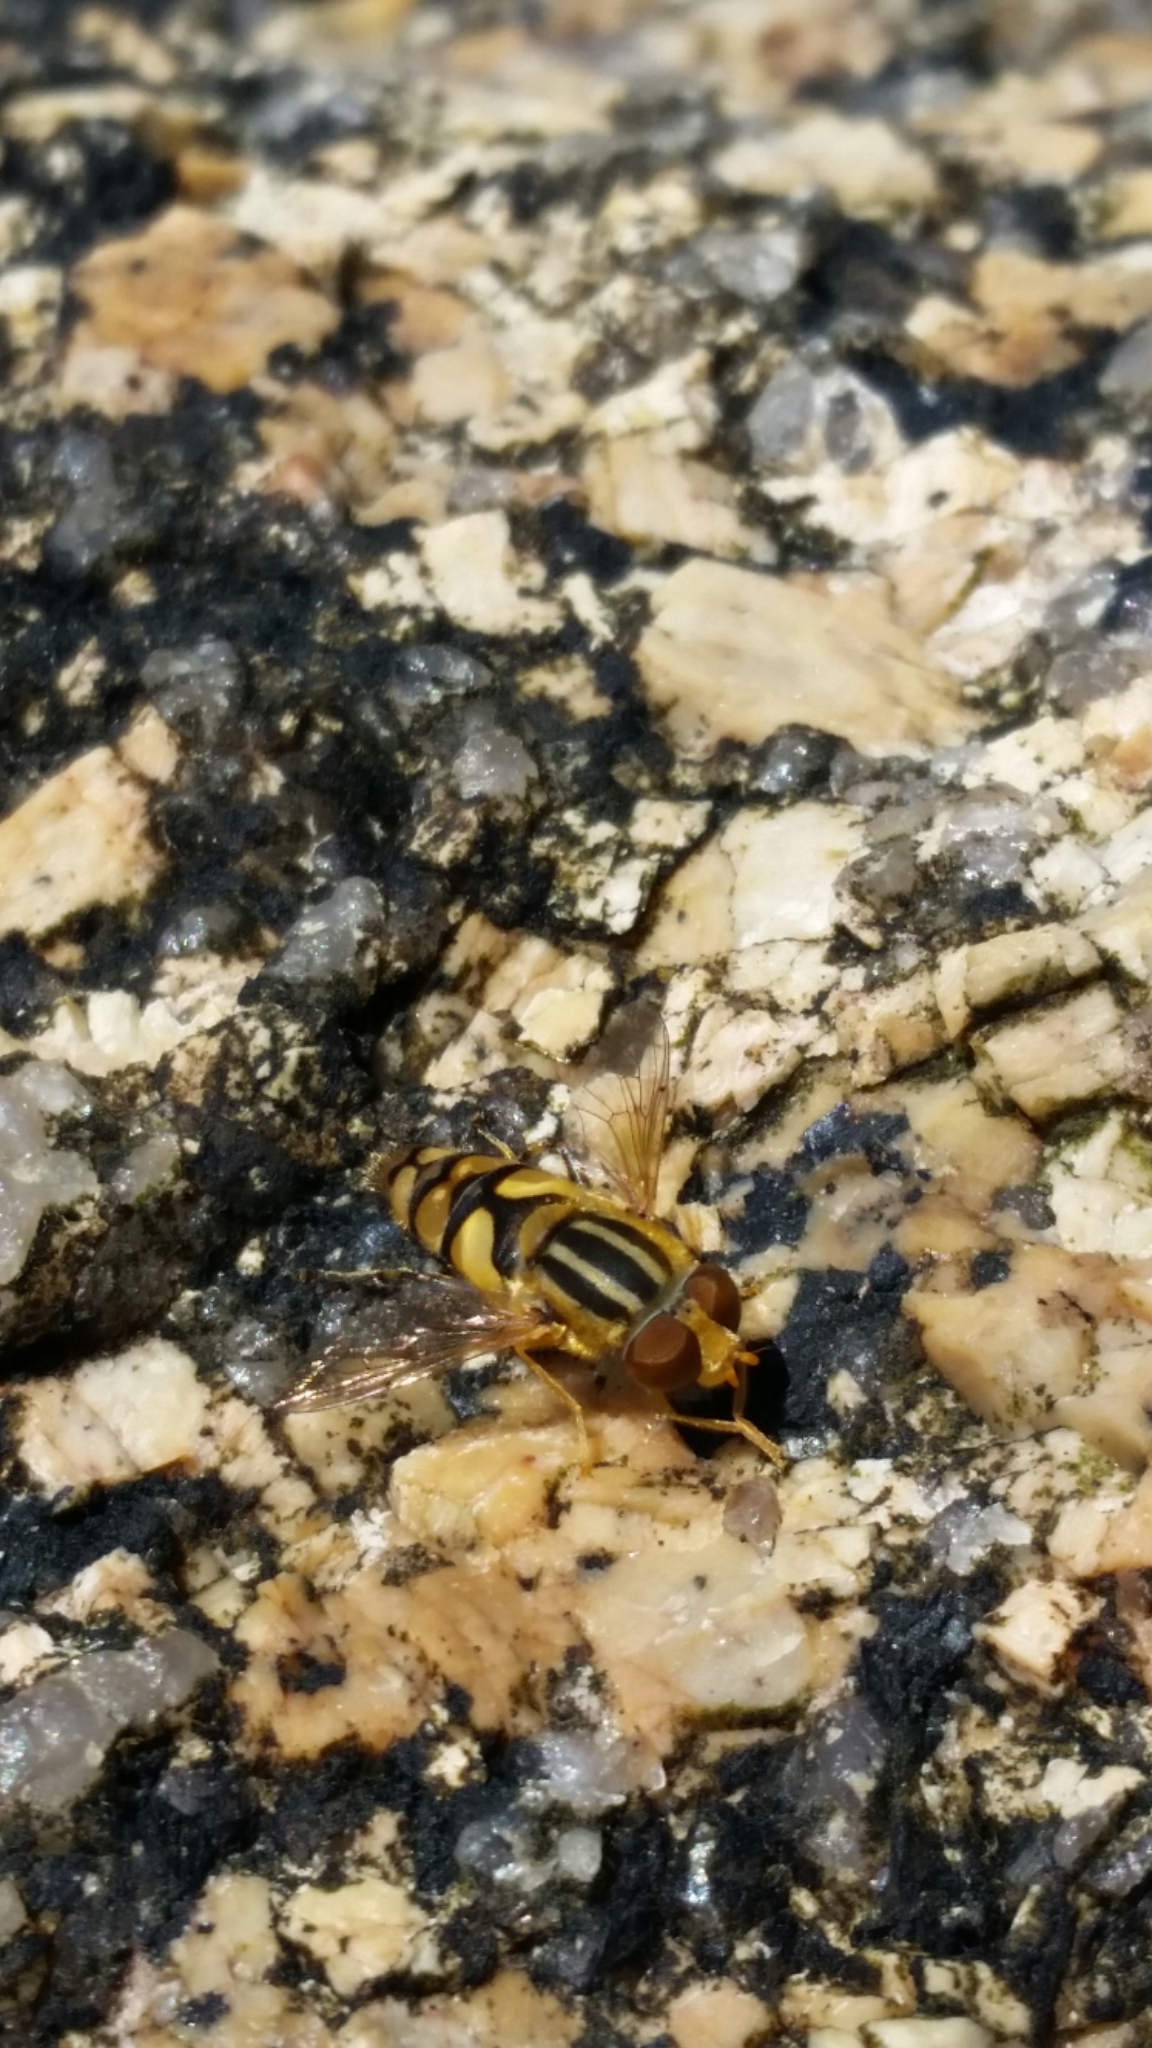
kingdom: Animalia
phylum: Arthropoda
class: Insecta
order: Diptera
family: Syrphidae
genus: Parhelophilus
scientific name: Parhelophilus integer
